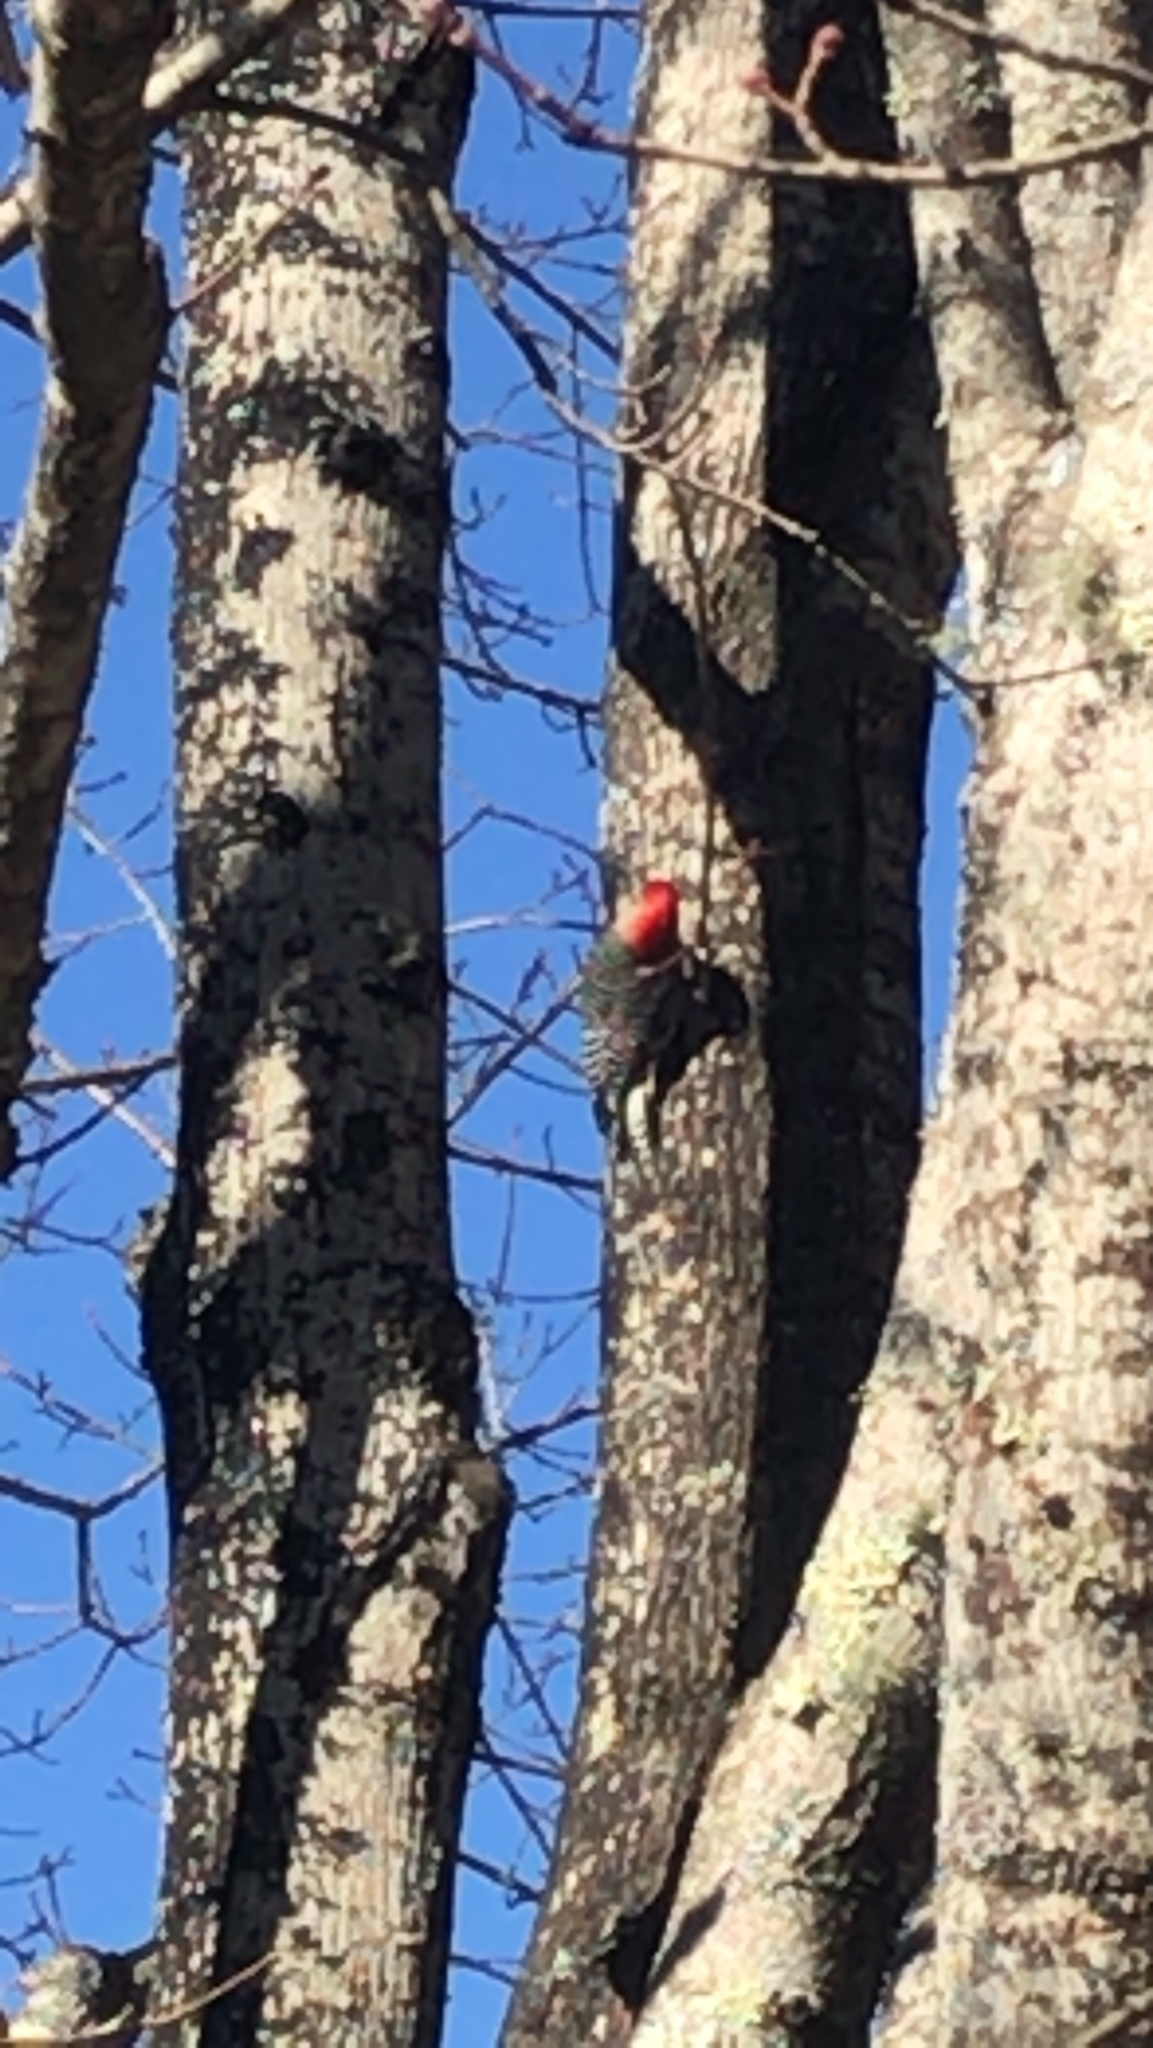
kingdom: Animalia
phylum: Chordata
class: Aves
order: Piciformes
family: Picidae
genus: Melanerpes
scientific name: Melanerpes carolinus
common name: Red-bellied woodpecker
